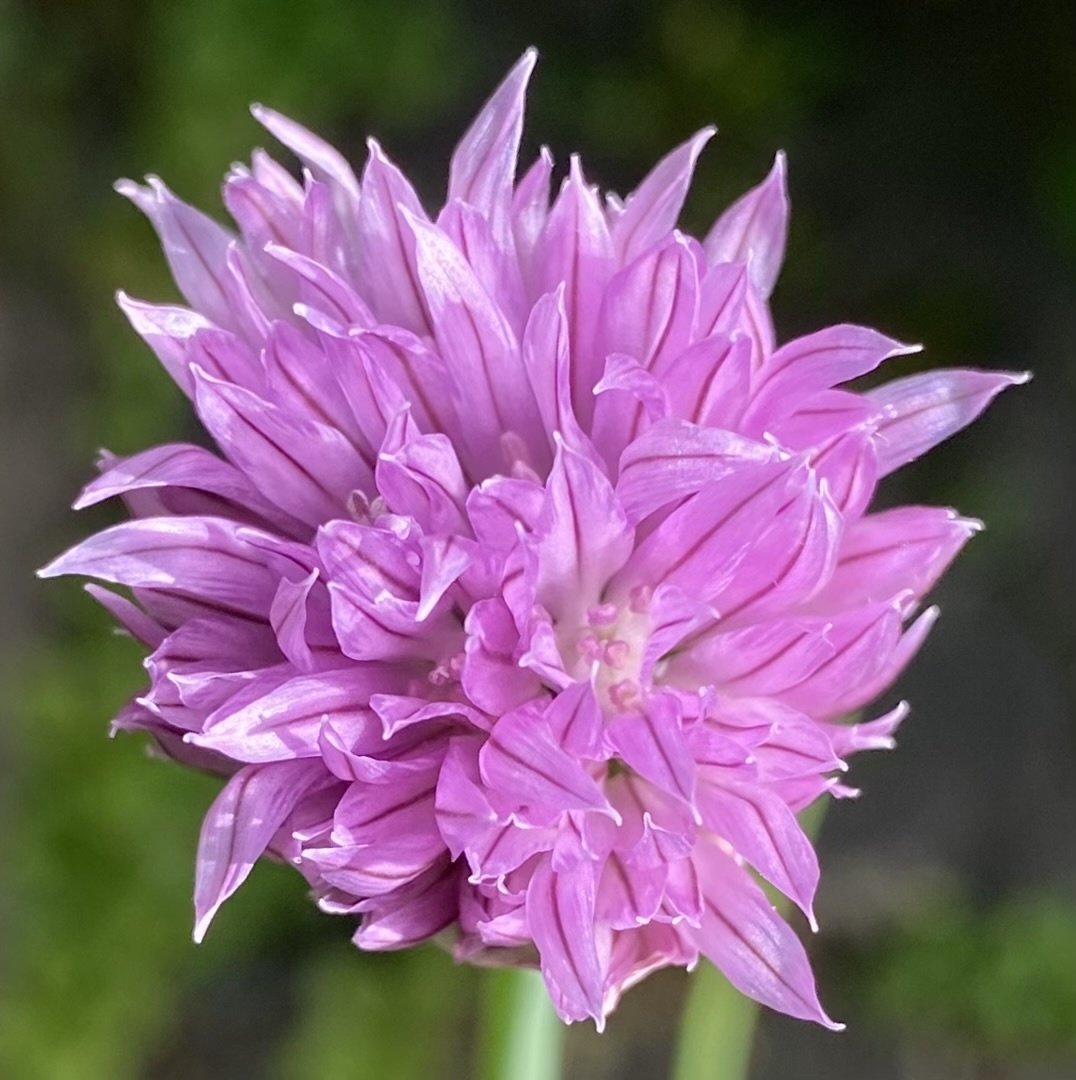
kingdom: Plantae
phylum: Tracheophyta
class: Liliopsida
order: Asparagales
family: Amaryllidaceae
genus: Allium
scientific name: Allium schoenoprasum
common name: Chives
